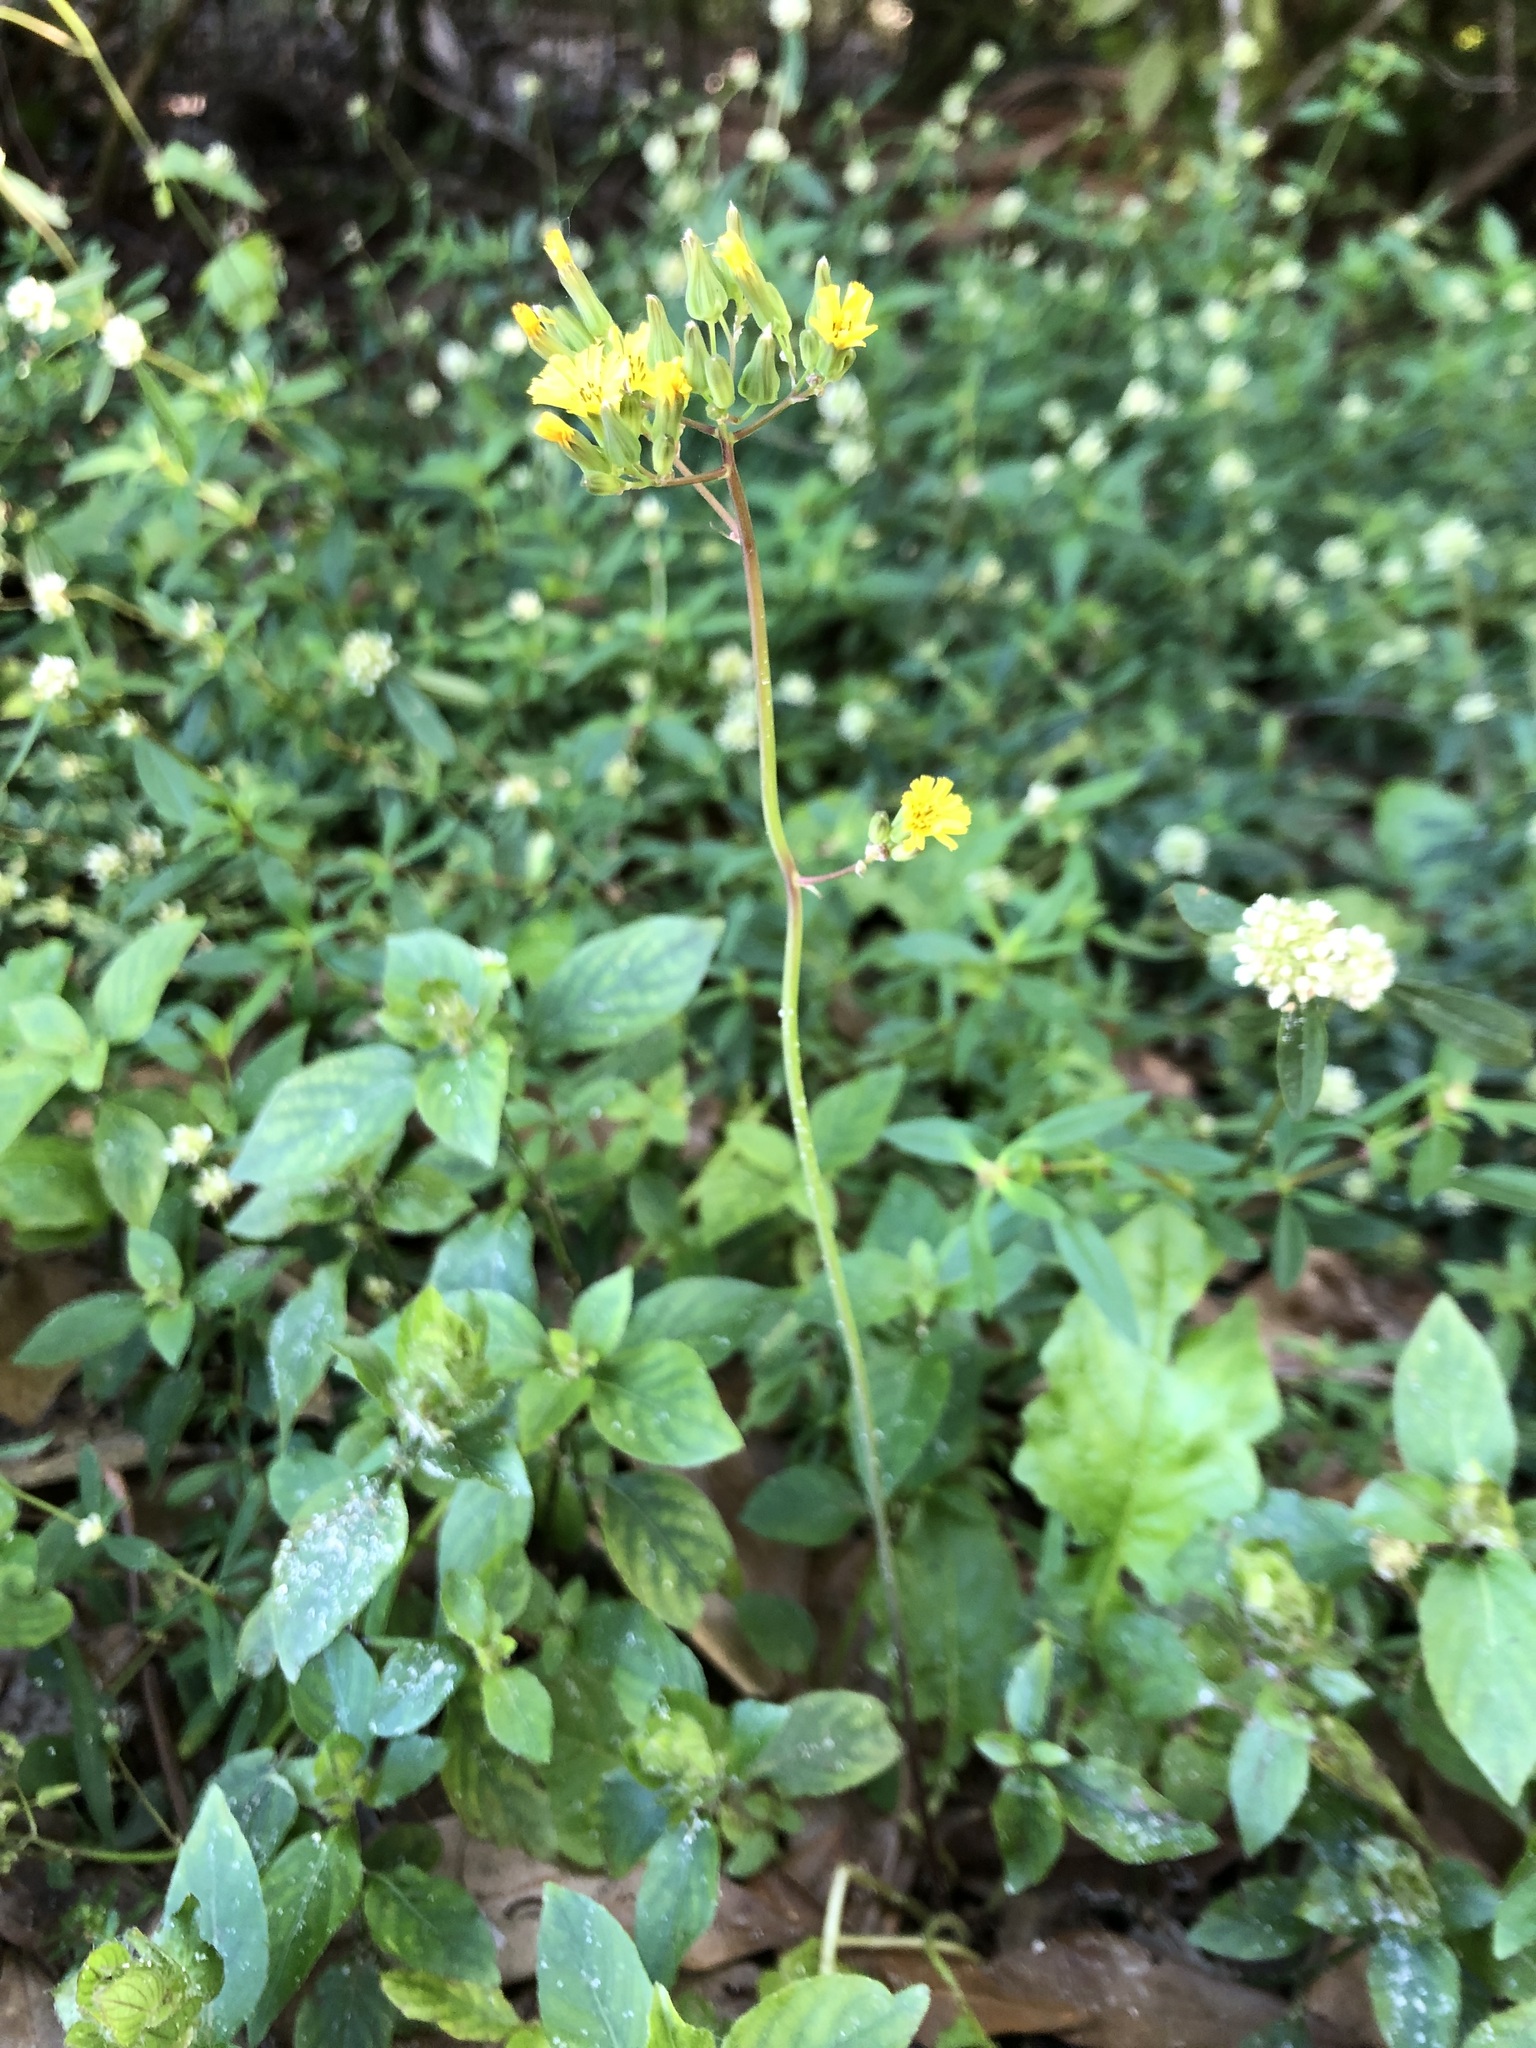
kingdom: Plantae
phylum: Tracheophyta
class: Magnoliopsida
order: Asterales
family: Asteraceae
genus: Youngia
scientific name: Youngia japonica
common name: Oriental false hawksbeard
